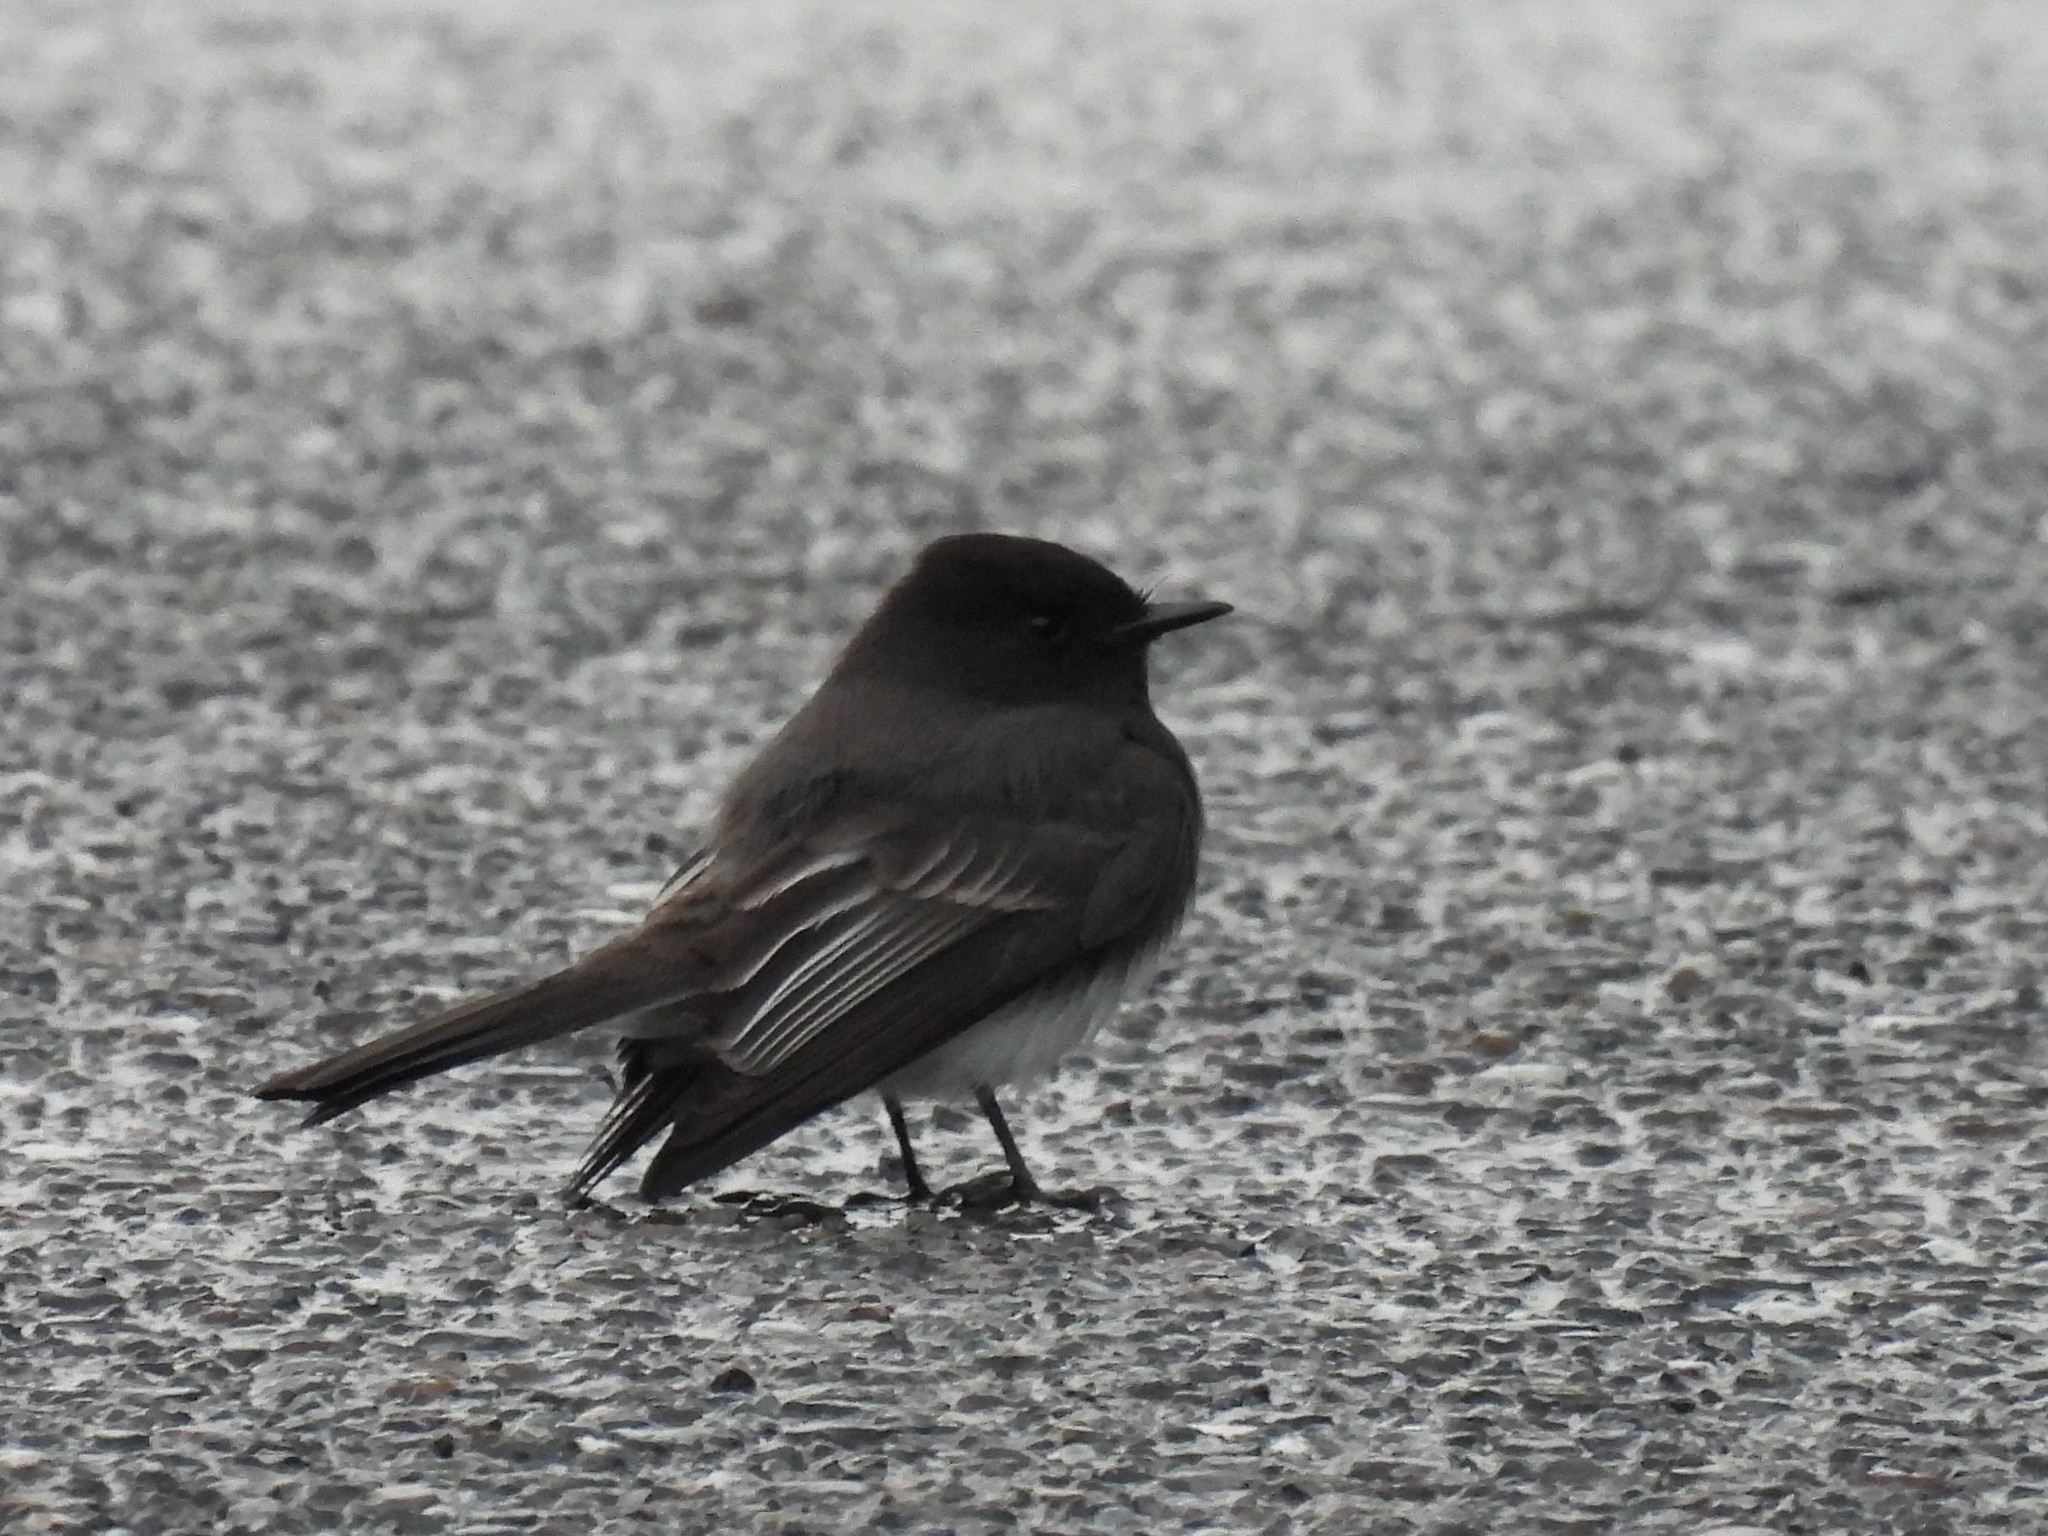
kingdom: Animalia
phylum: Chordata
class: Aves
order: Passeriformes
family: Tyrannidae
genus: Sayornis
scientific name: Sayornis nigricans
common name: Black phoebe
